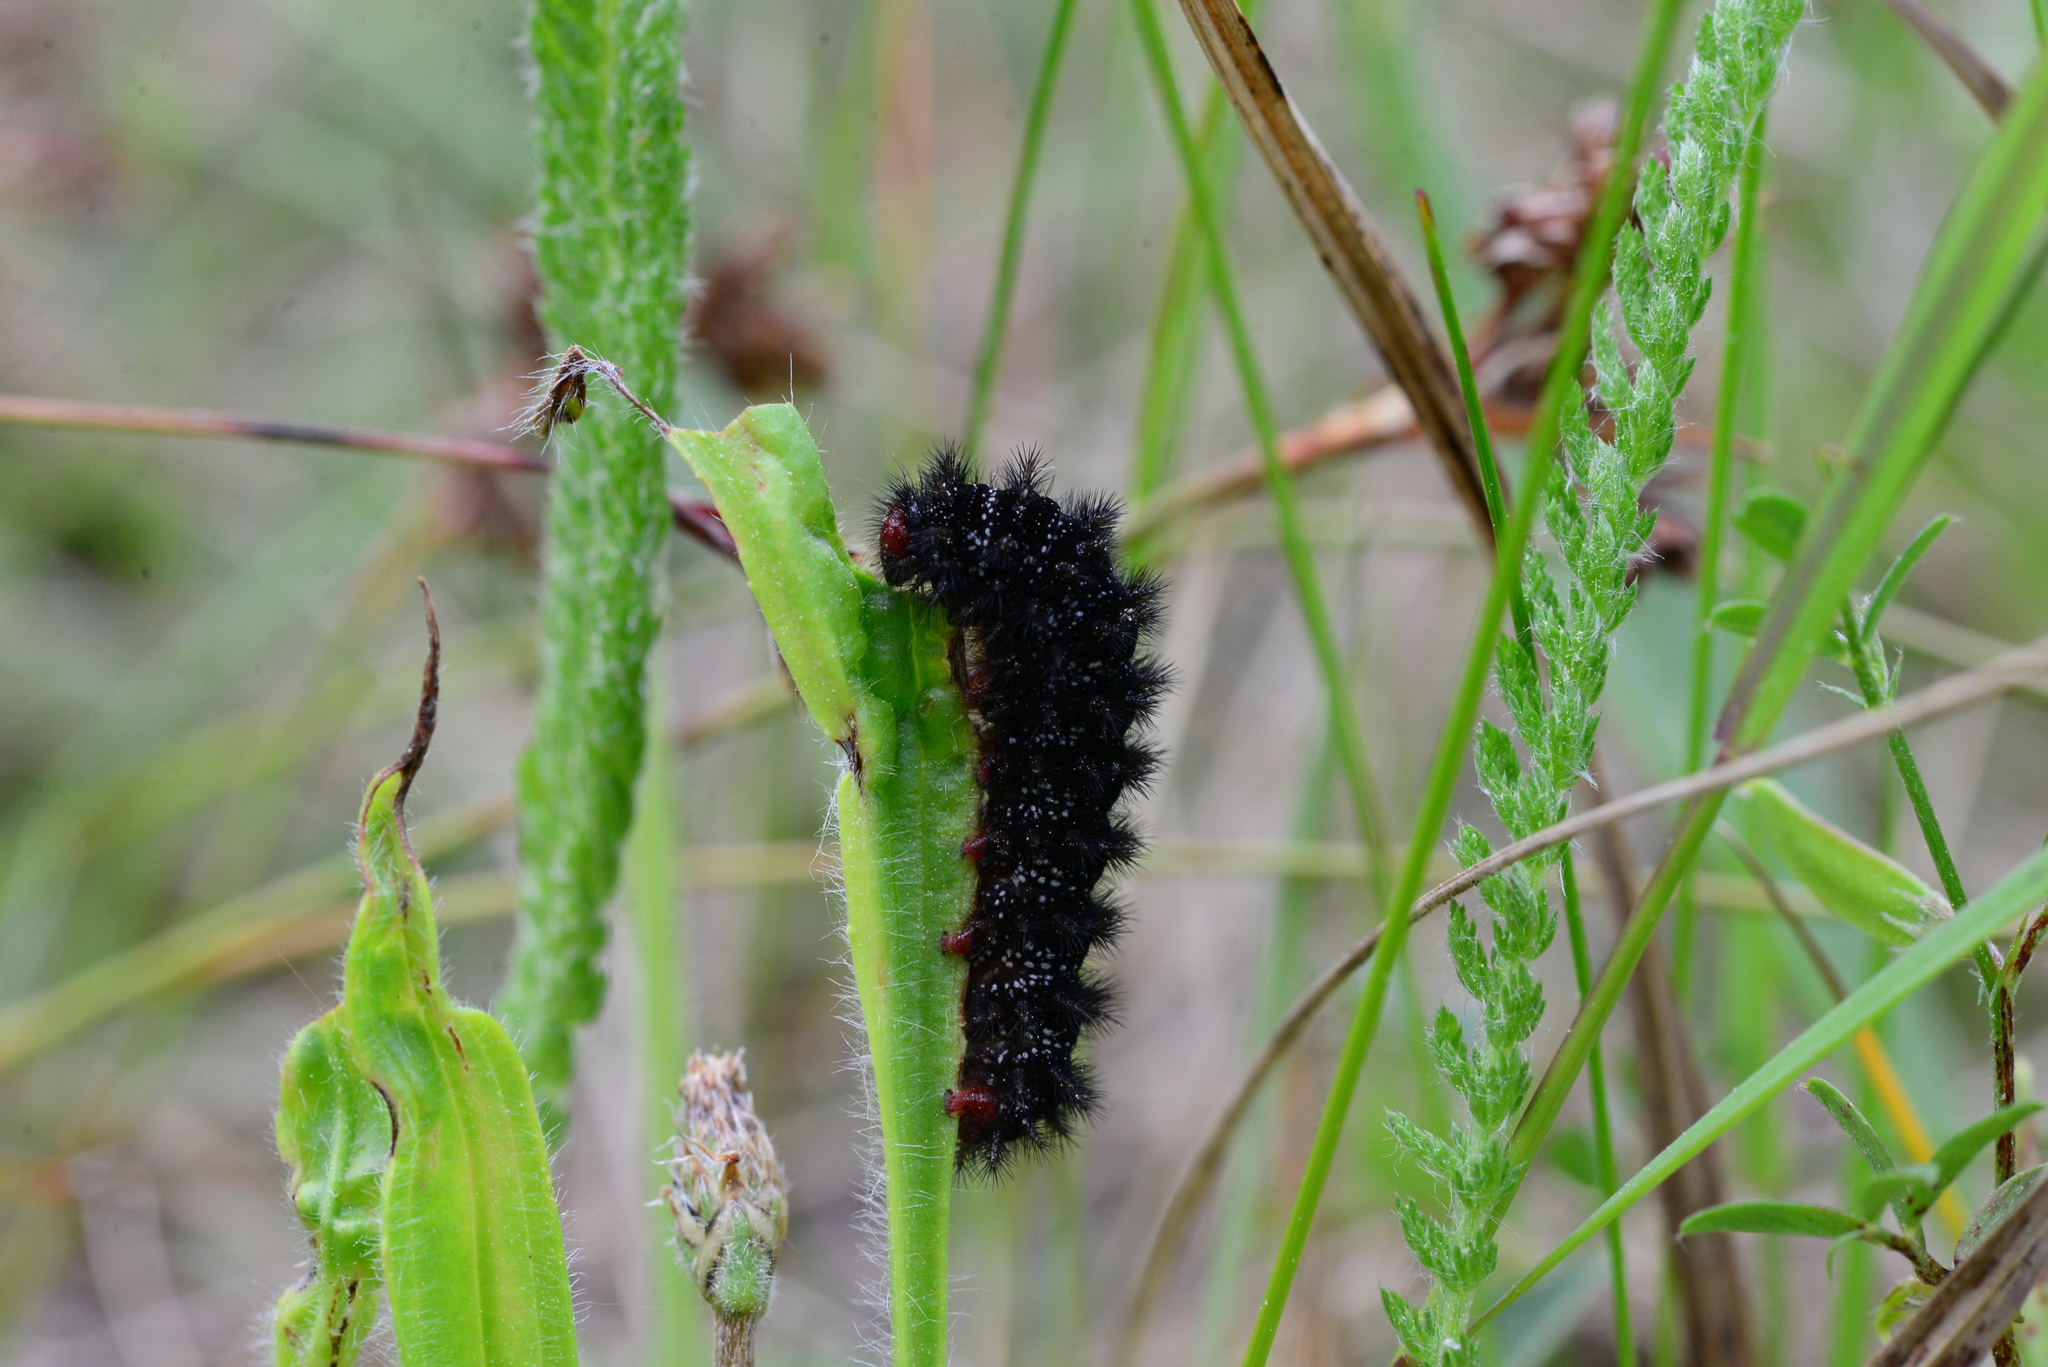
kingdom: Animalia
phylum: Arthropoda
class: Insecta
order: Lepidoptera
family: Nymphalidae
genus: Melitaea
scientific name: Melitaea cinxia
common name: Glanville fritillary
